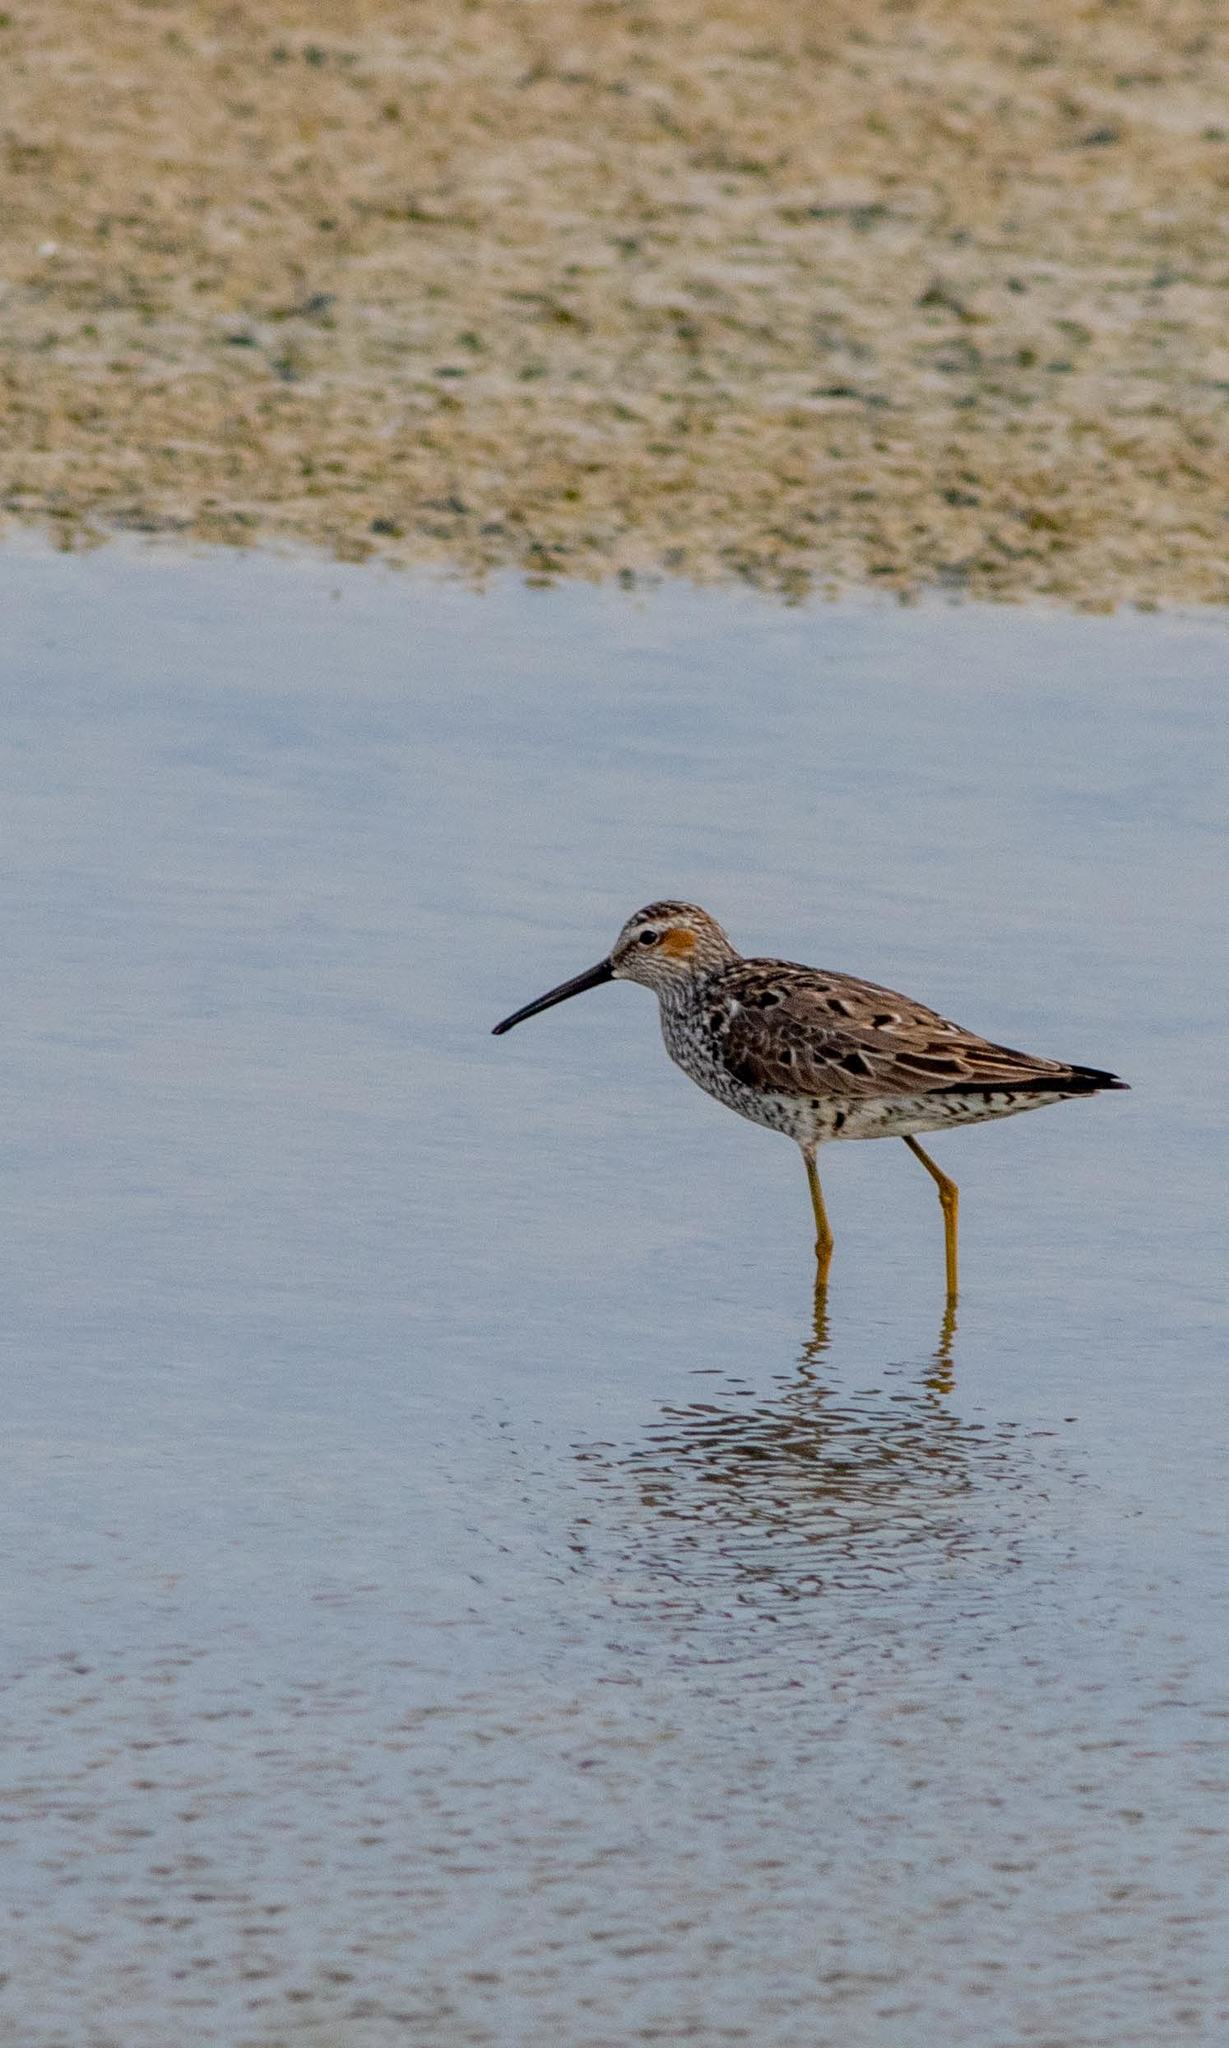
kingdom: Animalia
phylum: Chordata
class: Aves
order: Charadriiformes
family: Scolopacidae
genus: Calidris
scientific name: Calidris himantopus
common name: Stilt sandpiper
